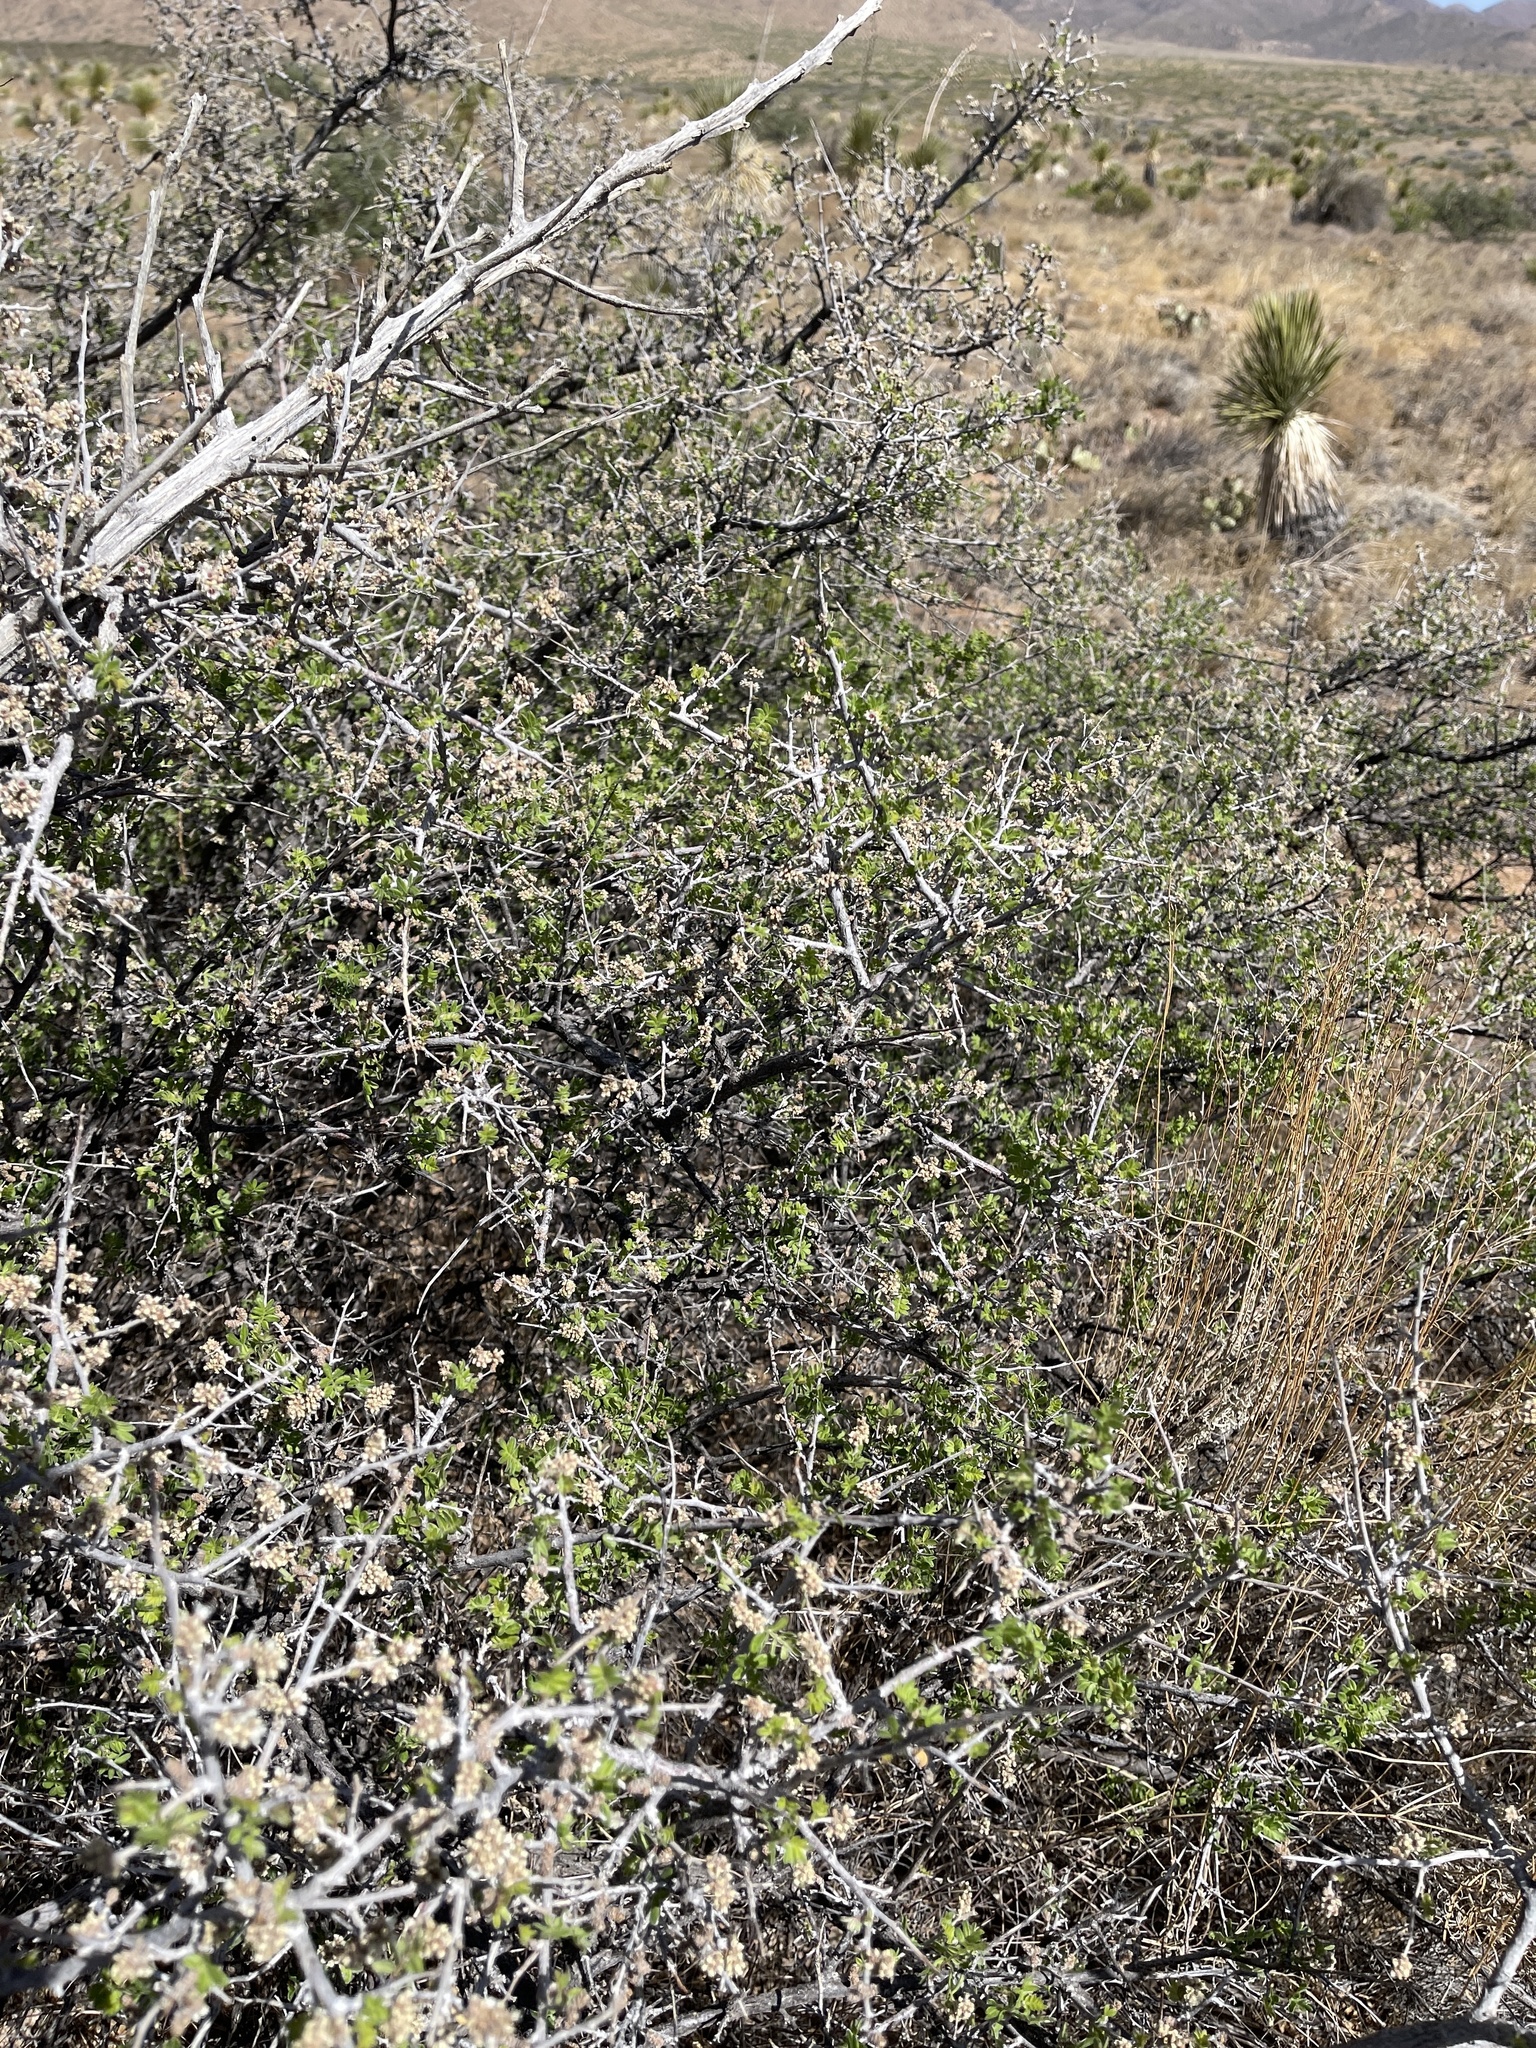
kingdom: Plantae
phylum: Tracheophyta
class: Magnoliopsida
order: Sapindales
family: Anacardiaceae
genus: Rhus
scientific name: Rhus microphylla
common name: Desert sumac
